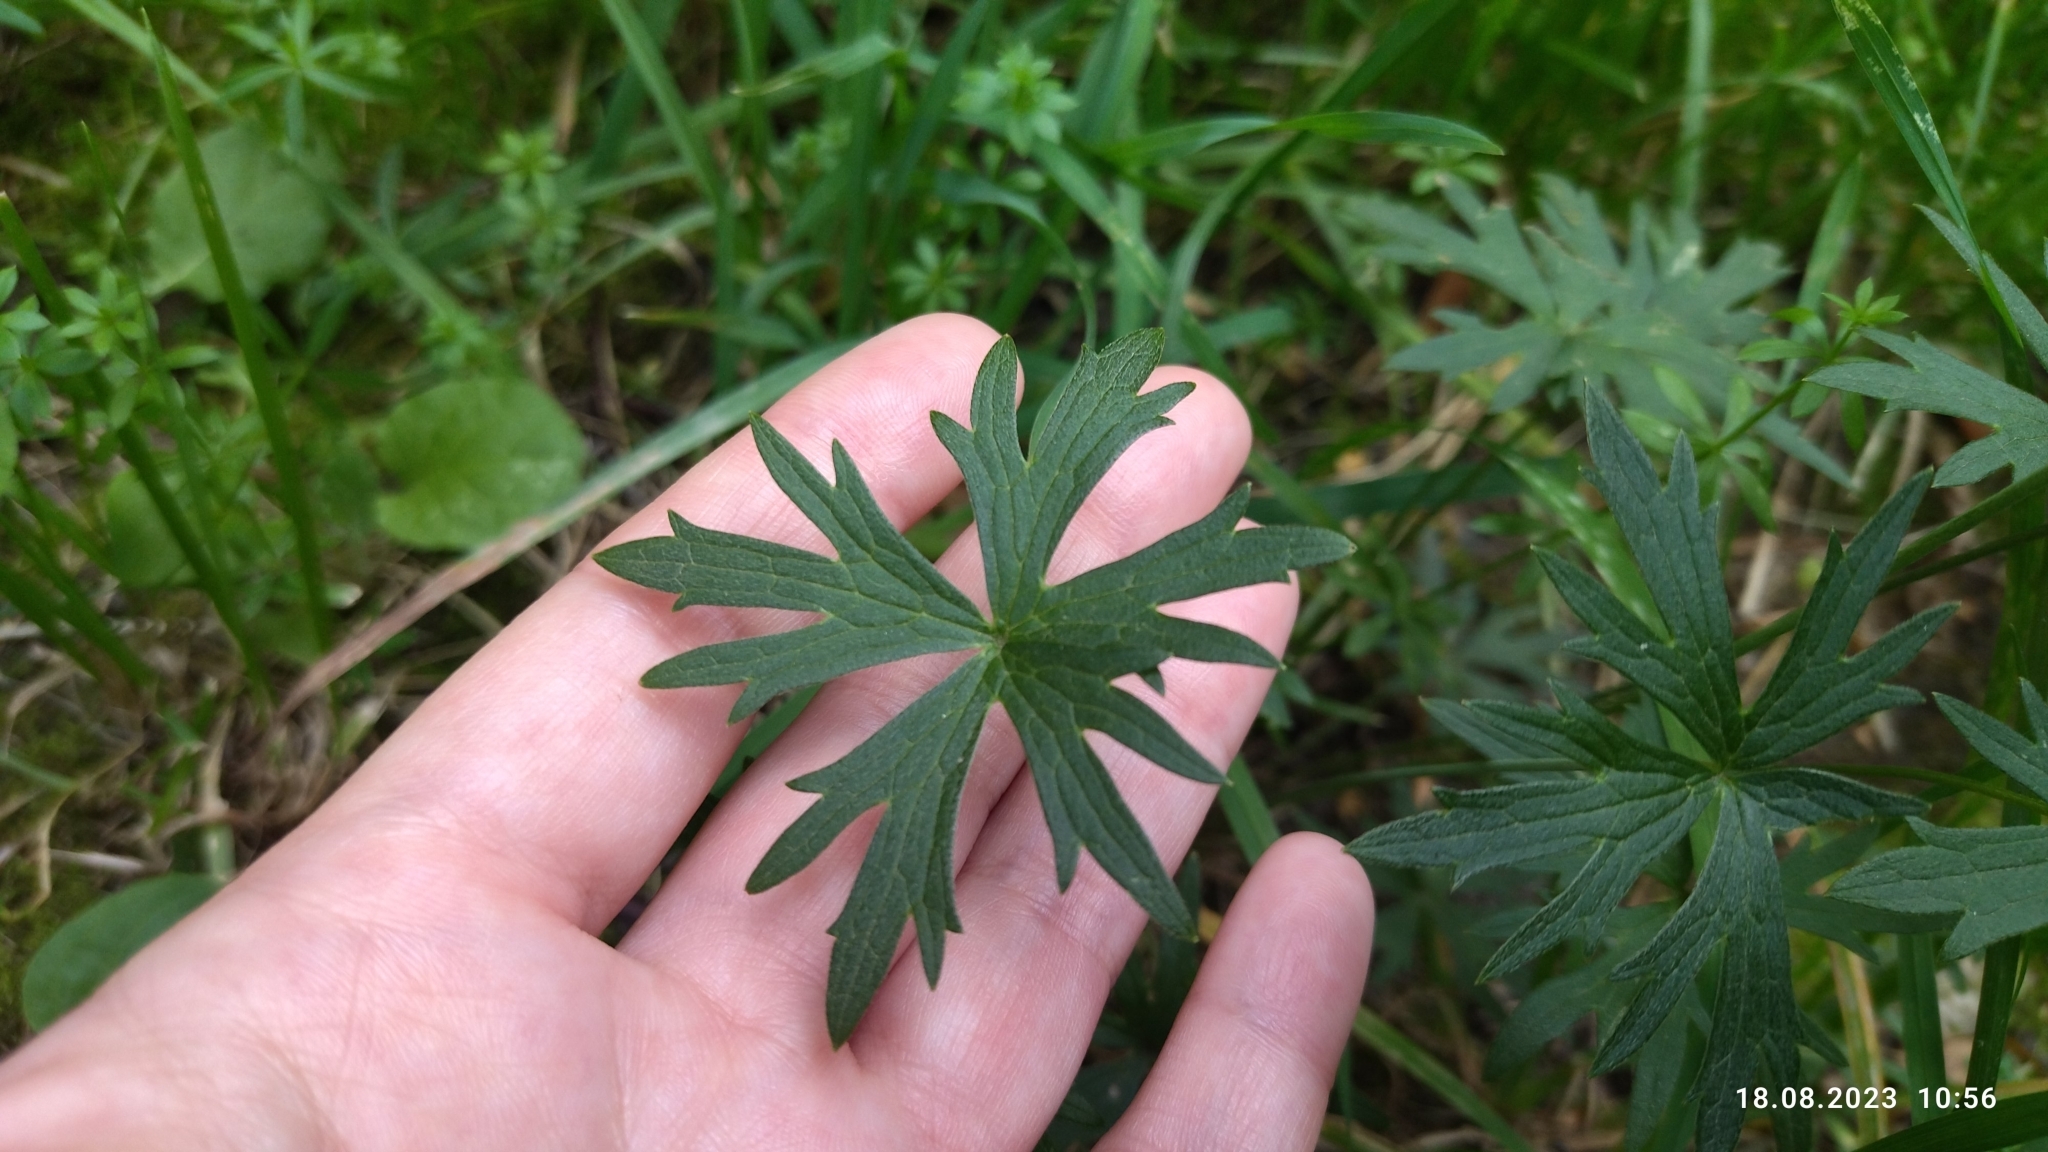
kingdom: Plantae
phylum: Tracheophyta
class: Magnoliopsida
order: Ranunculales
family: Ranunculaceae
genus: Ranunculus
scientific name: Ranunculus acris
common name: Meadow buttercup
